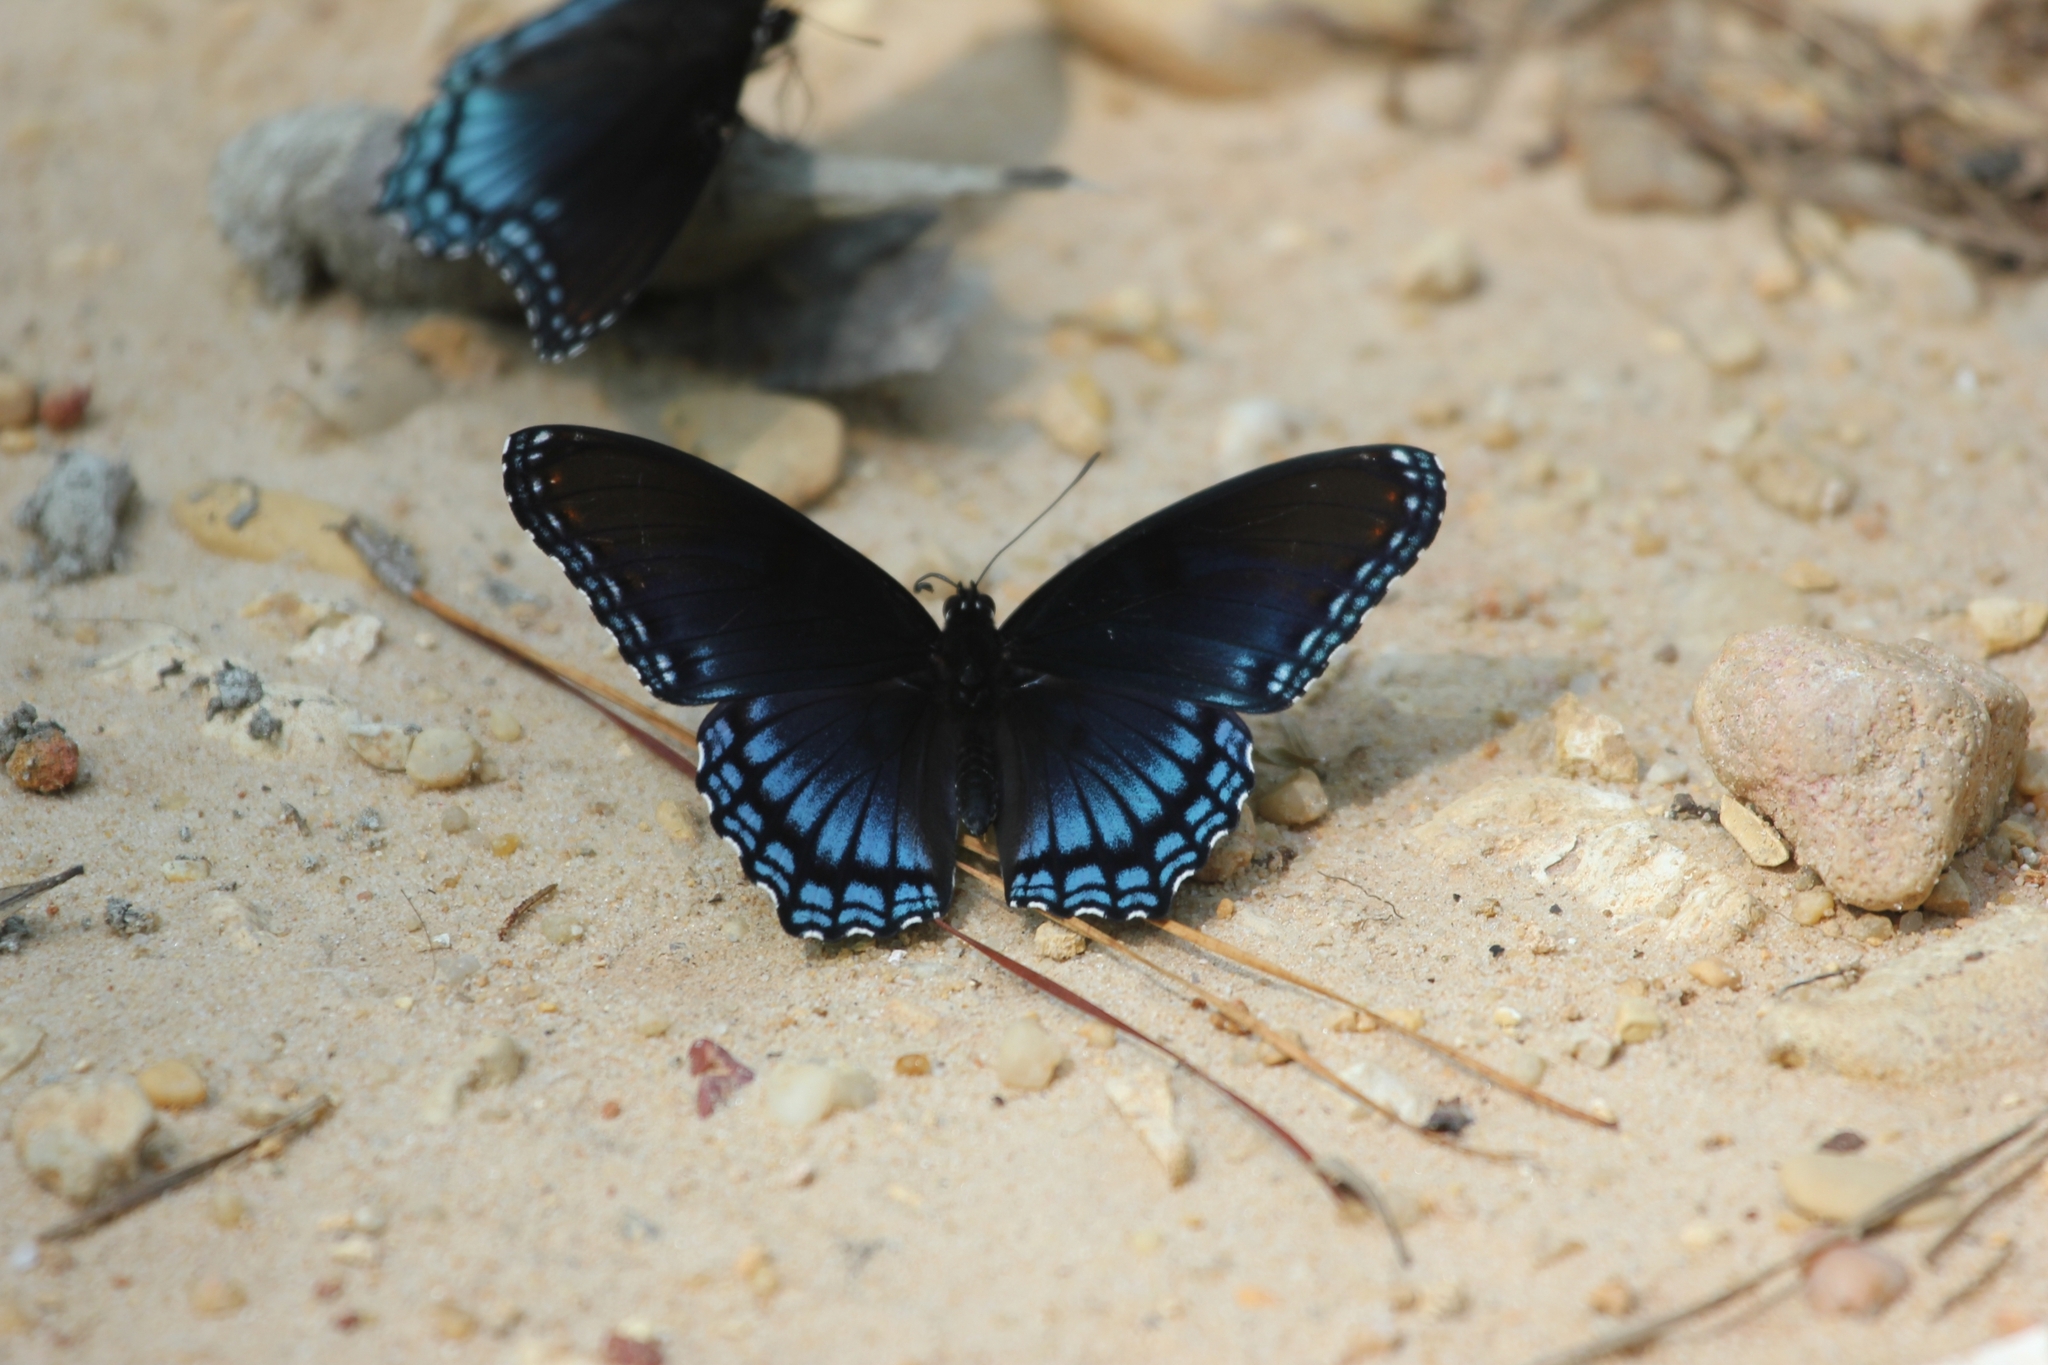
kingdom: Animalia
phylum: Arthropoda
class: Insecta
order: Lepidoptera
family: Nymphalidae
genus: Limenitis
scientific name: Limenitis astyanax
